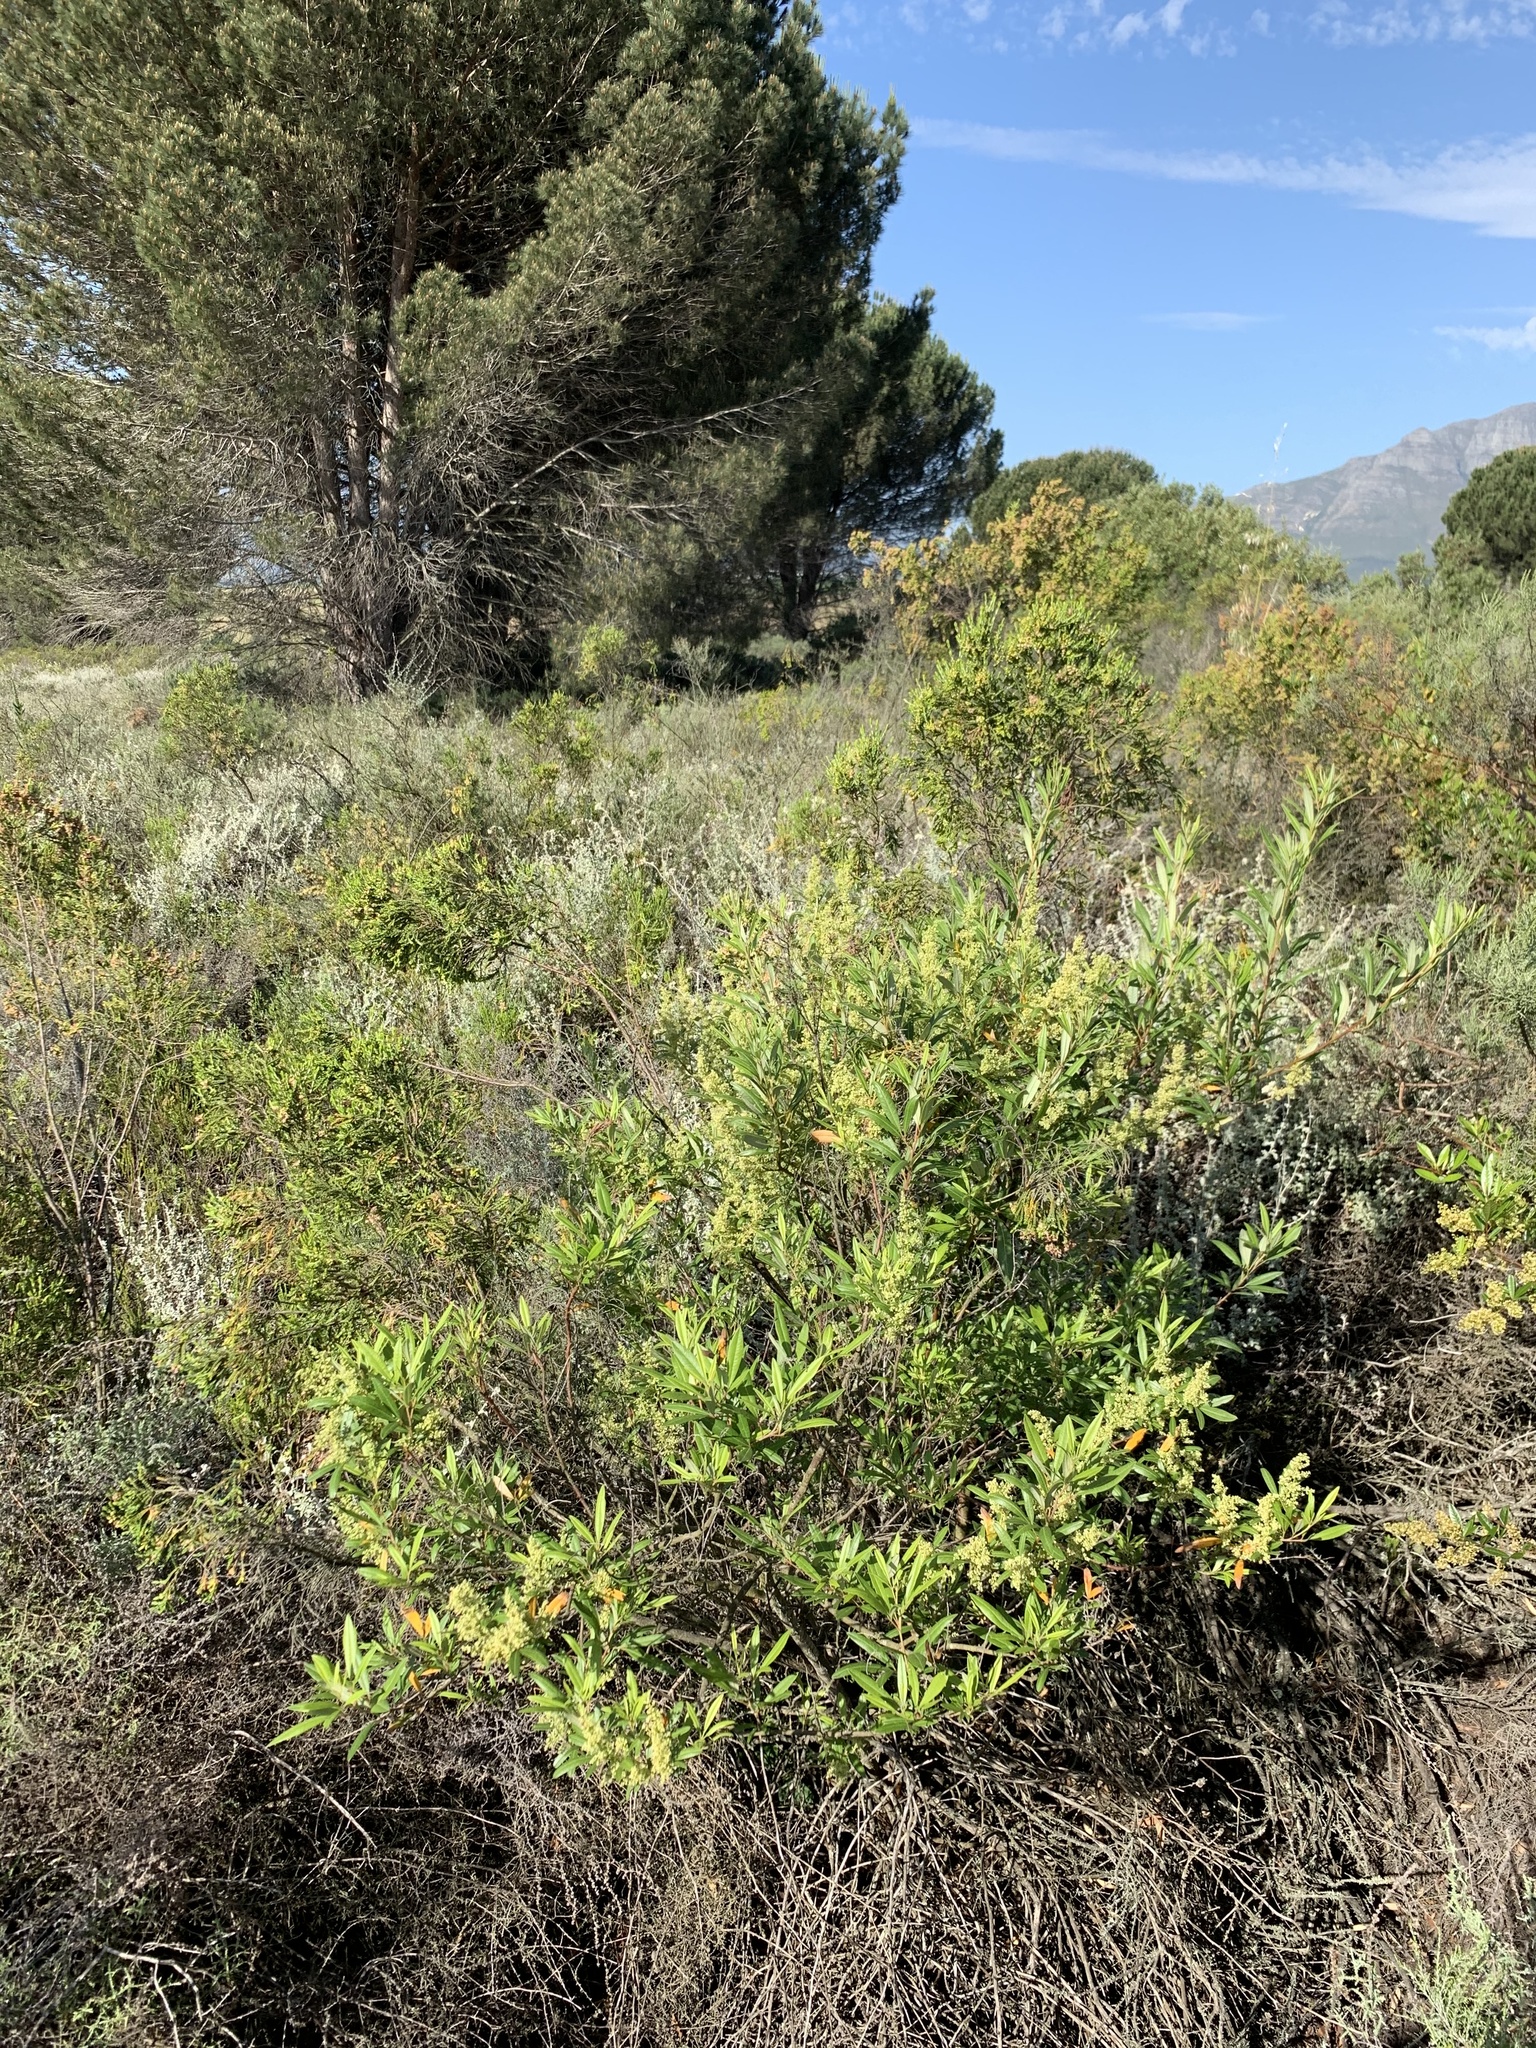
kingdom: Plantae
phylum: Tracheophyta
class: Magnoliopsida
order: Sapindales
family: Anacardiaceae
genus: Searsia
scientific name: Searsia angustifolia
